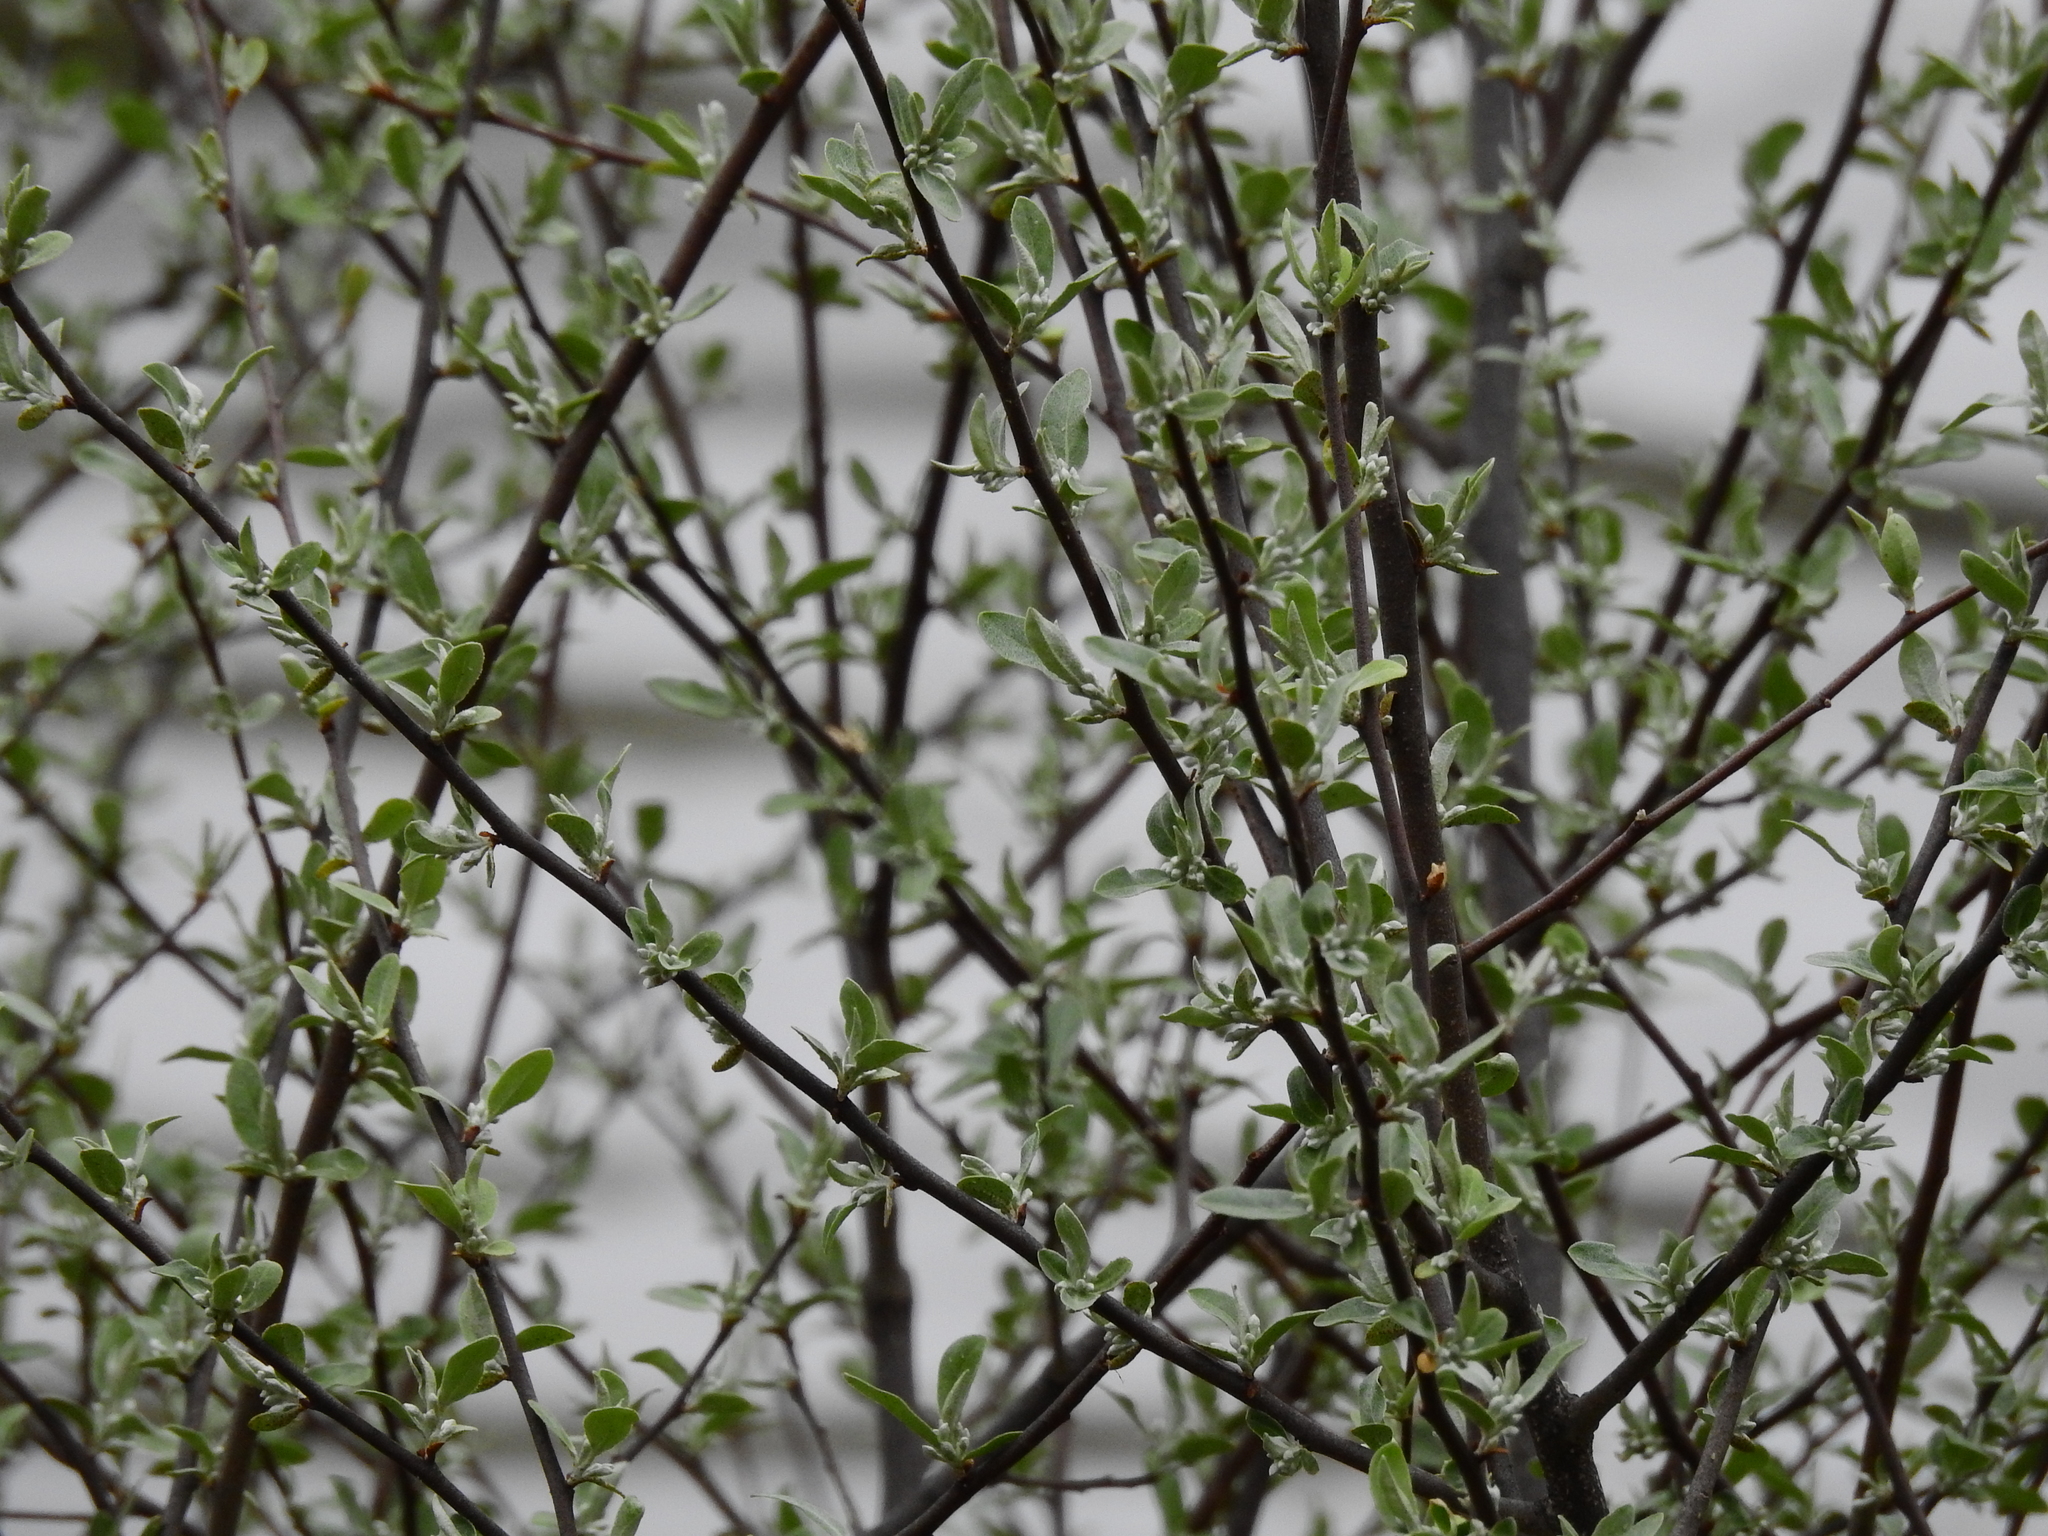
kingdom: Plantae
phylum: Tracheophyta
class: Magnoliopsida
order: Rosales
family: Elaeagnaceae
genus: Elaeagnus
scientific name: Elaeagnus umbellata
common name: Autumn olive
